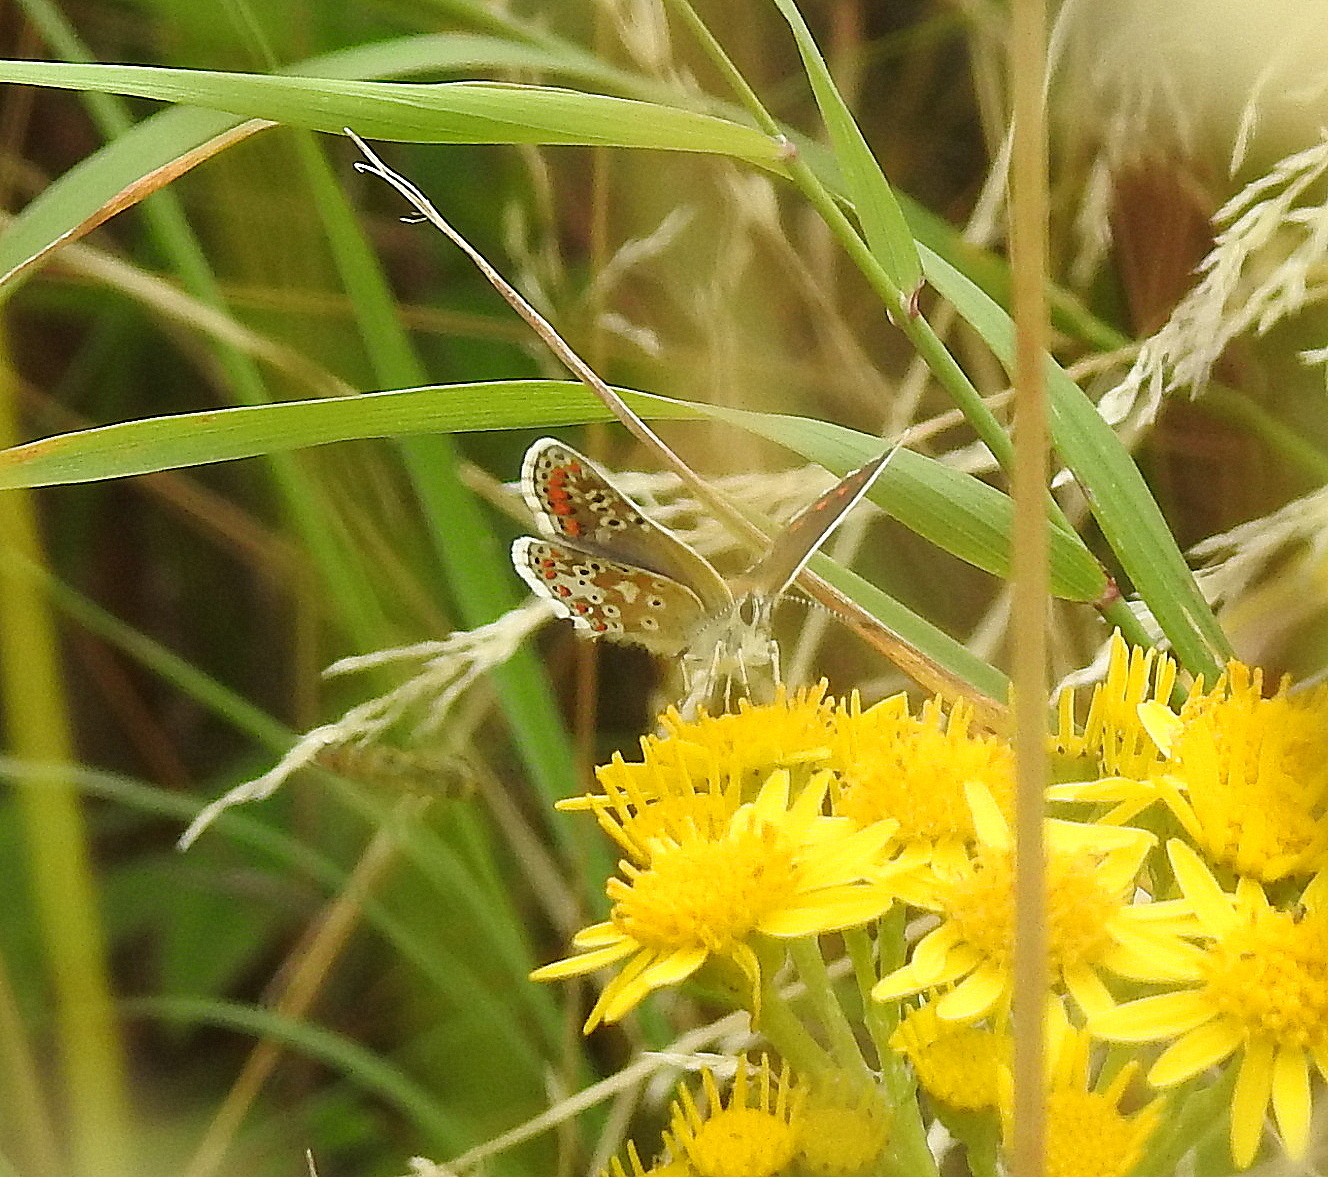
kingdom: Animalia
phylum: Arthropoda
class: Insecta
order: Lepidoptera
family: Lycaenidae
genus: Aricia
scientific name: Aricia agestis
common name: Brown argus
